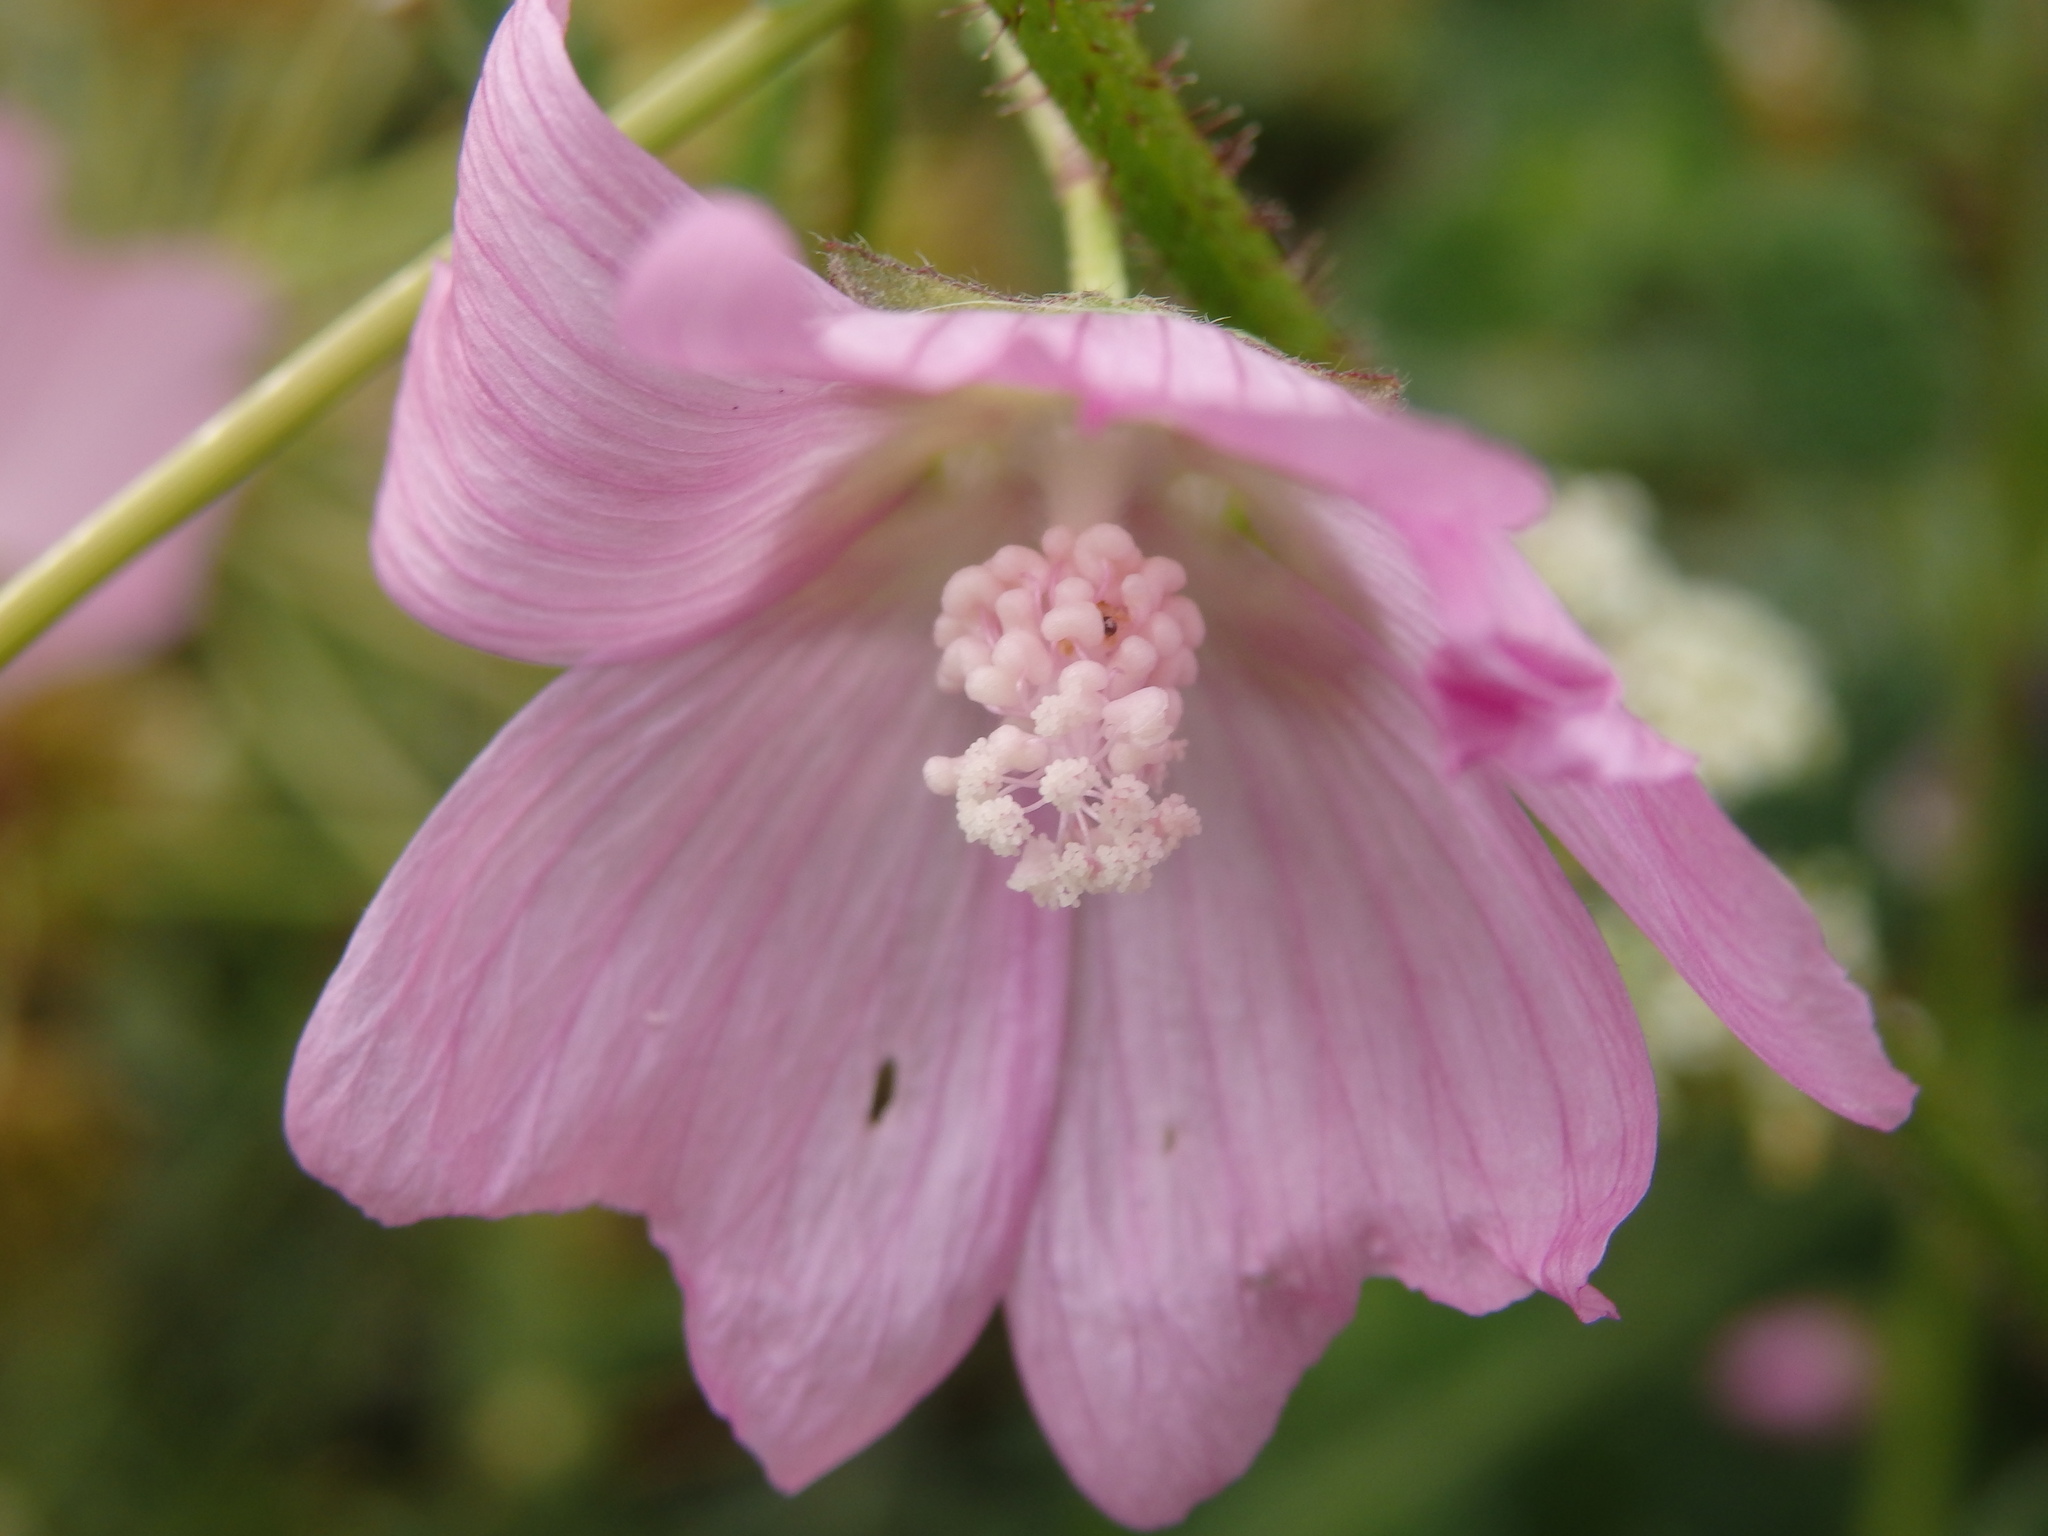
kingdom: Plantae
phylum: Tracheophyta
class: Magnoliopsida
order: Malvales
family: Malvaceae
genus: Malva
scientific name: Malva tournefortiana
